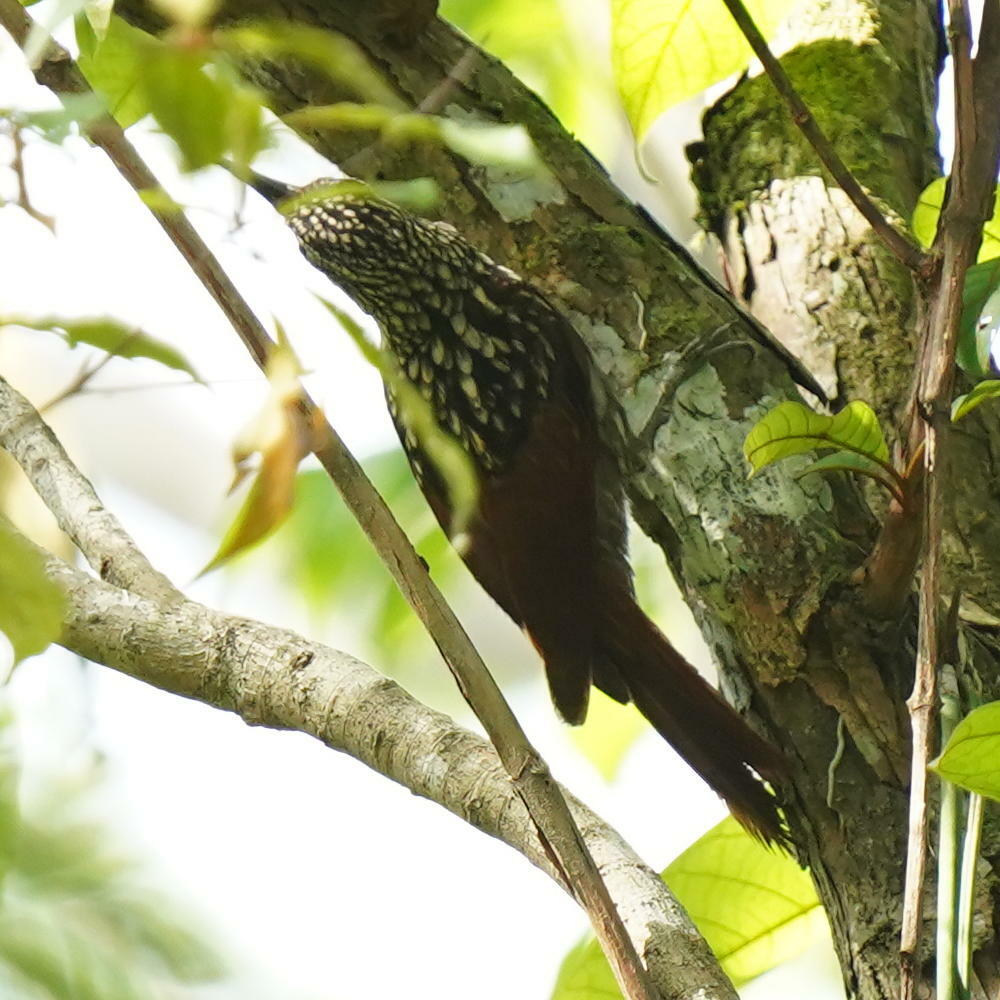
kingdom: Animalia
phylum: Chordata
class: Aves
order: Passeriformes
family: Furnariidae
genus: Xiphorhynchus
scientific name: Xiphorhynchus lachrymosus
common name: Black-striped woodcreeper
